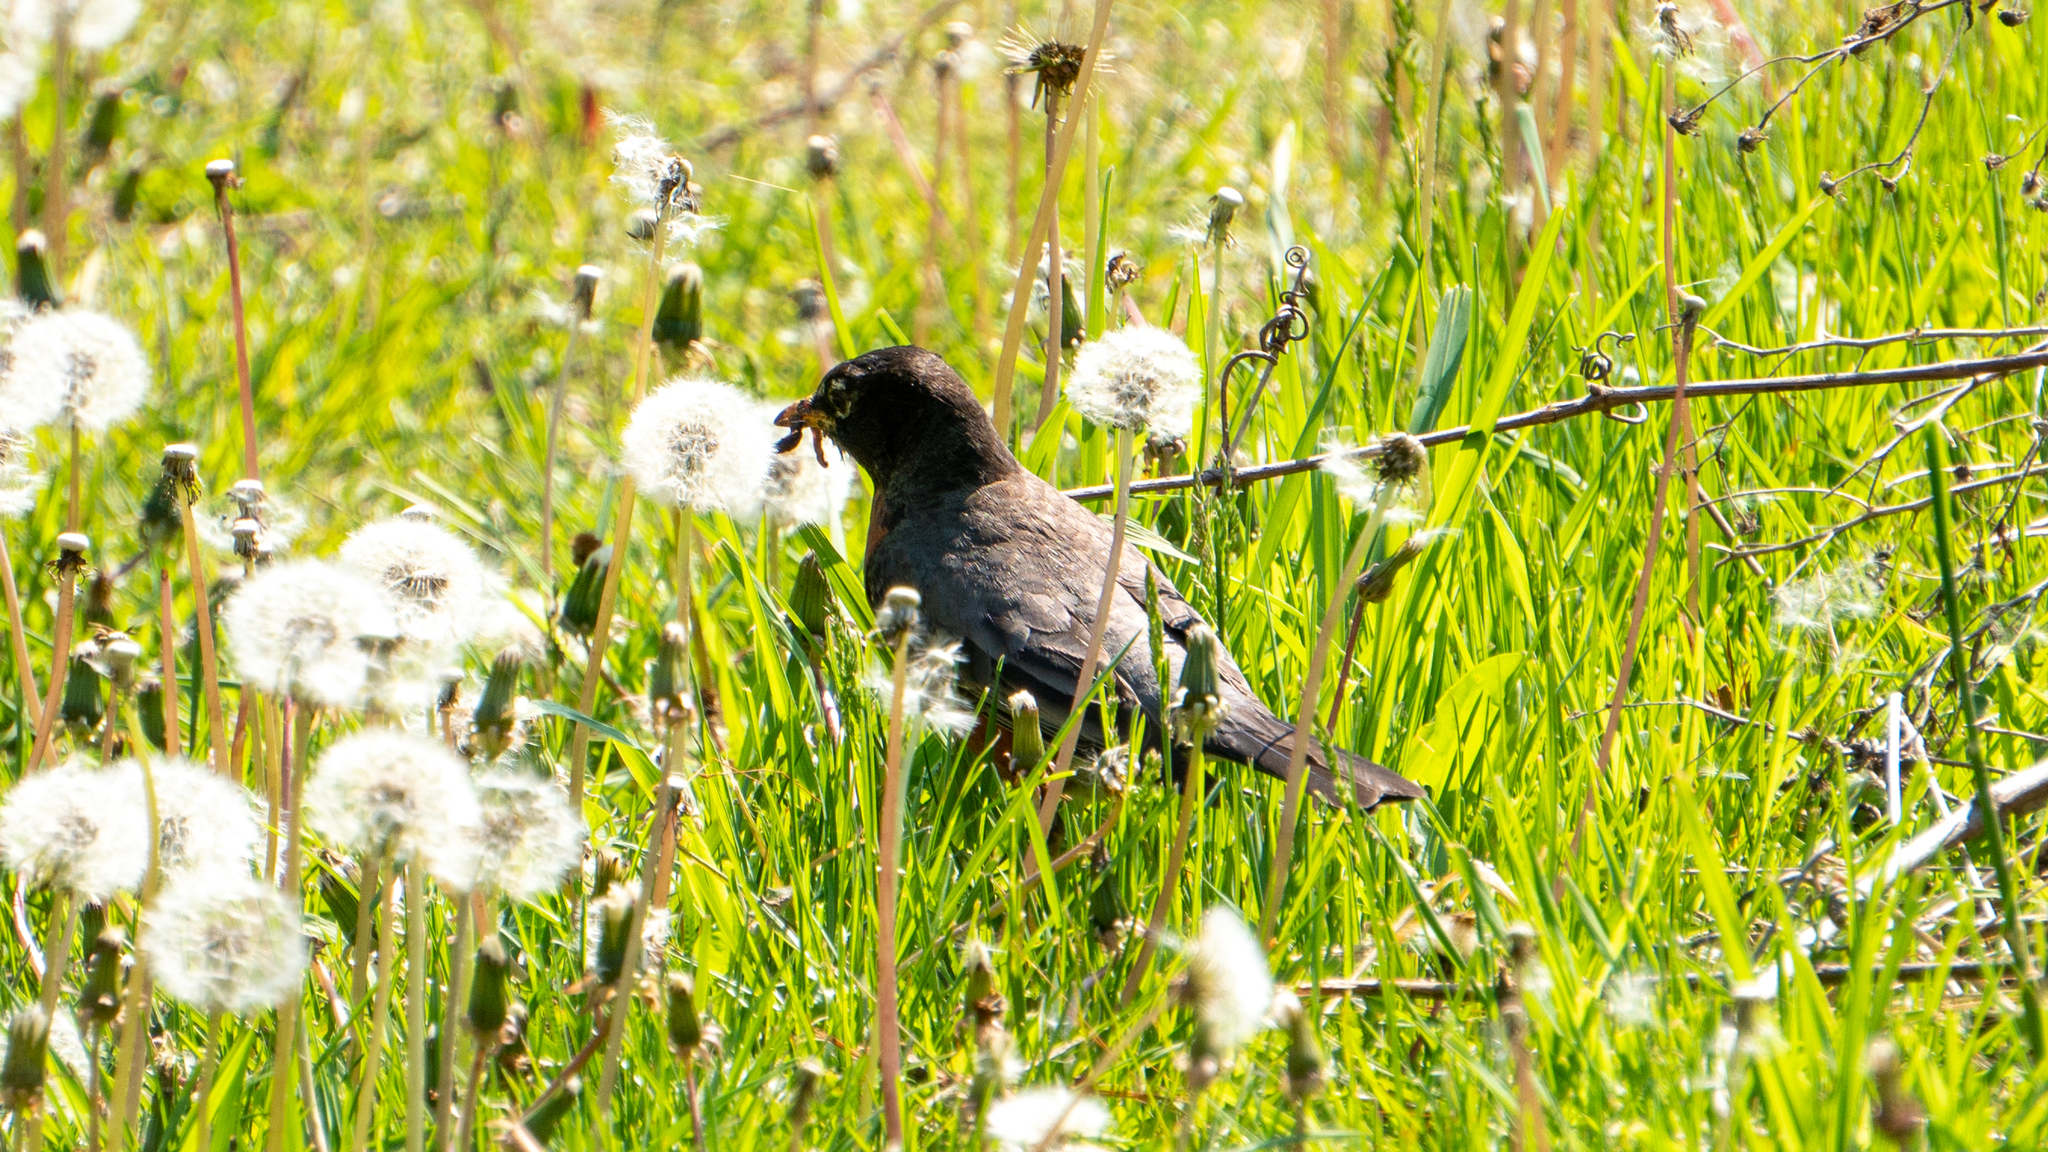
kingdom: Animalia
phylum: Chordata
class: Aves
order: Passeriformes
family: Turdidae
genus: Turdus
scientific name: Turdus migratorius
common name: American robin
